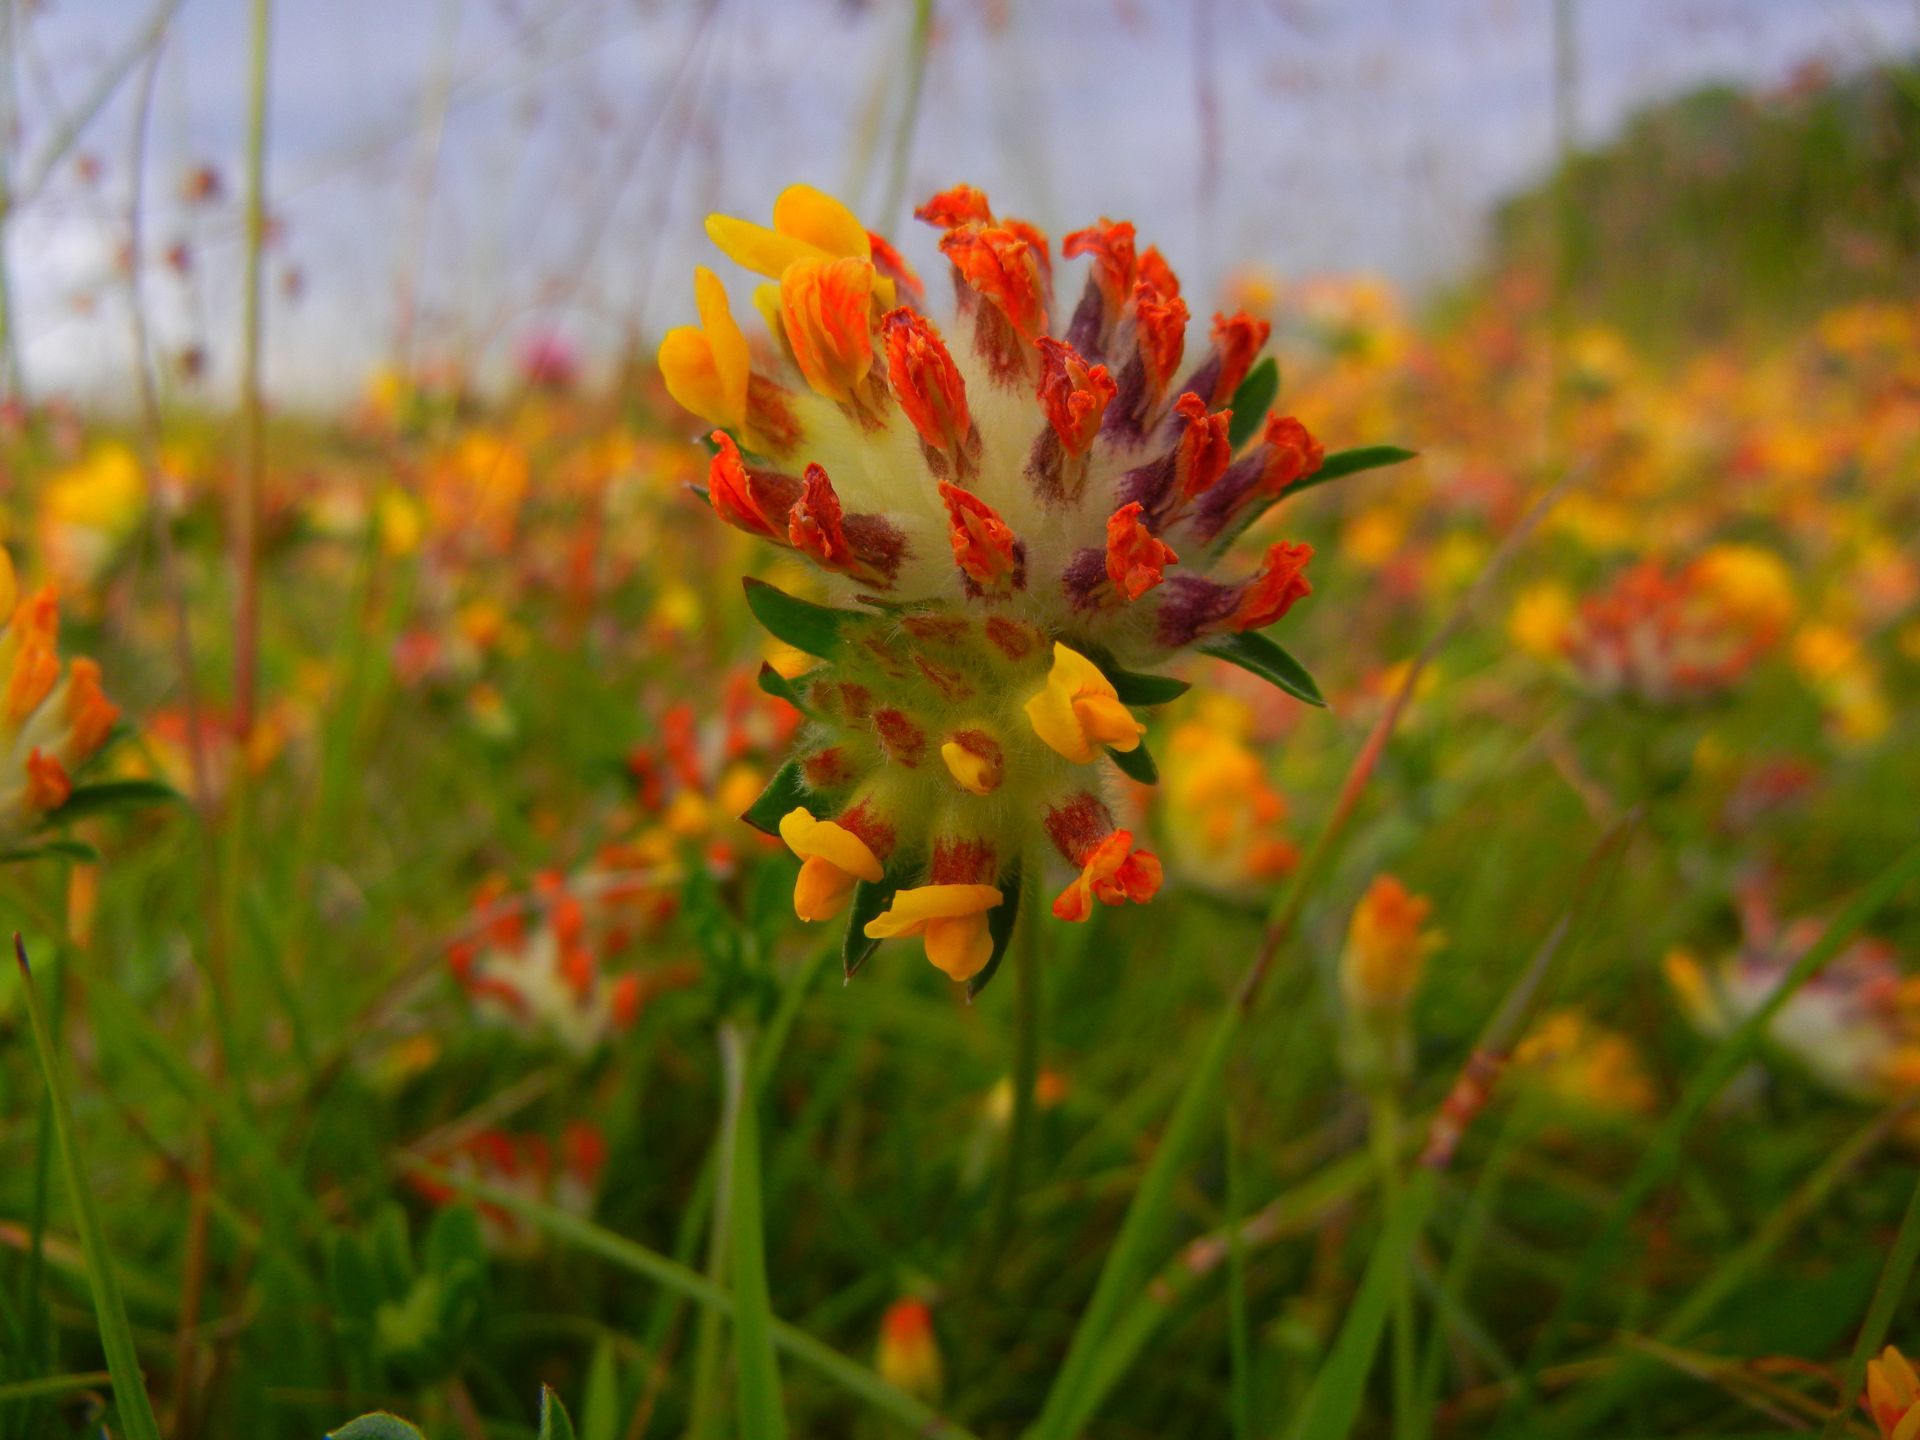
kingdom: Plantae
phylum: Tracheophyta
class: Magnoliopsida
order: Fabales
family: Fabaceae
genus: Anthyllis
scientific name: Anthyllis vulneraria
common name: Kidney vetch
